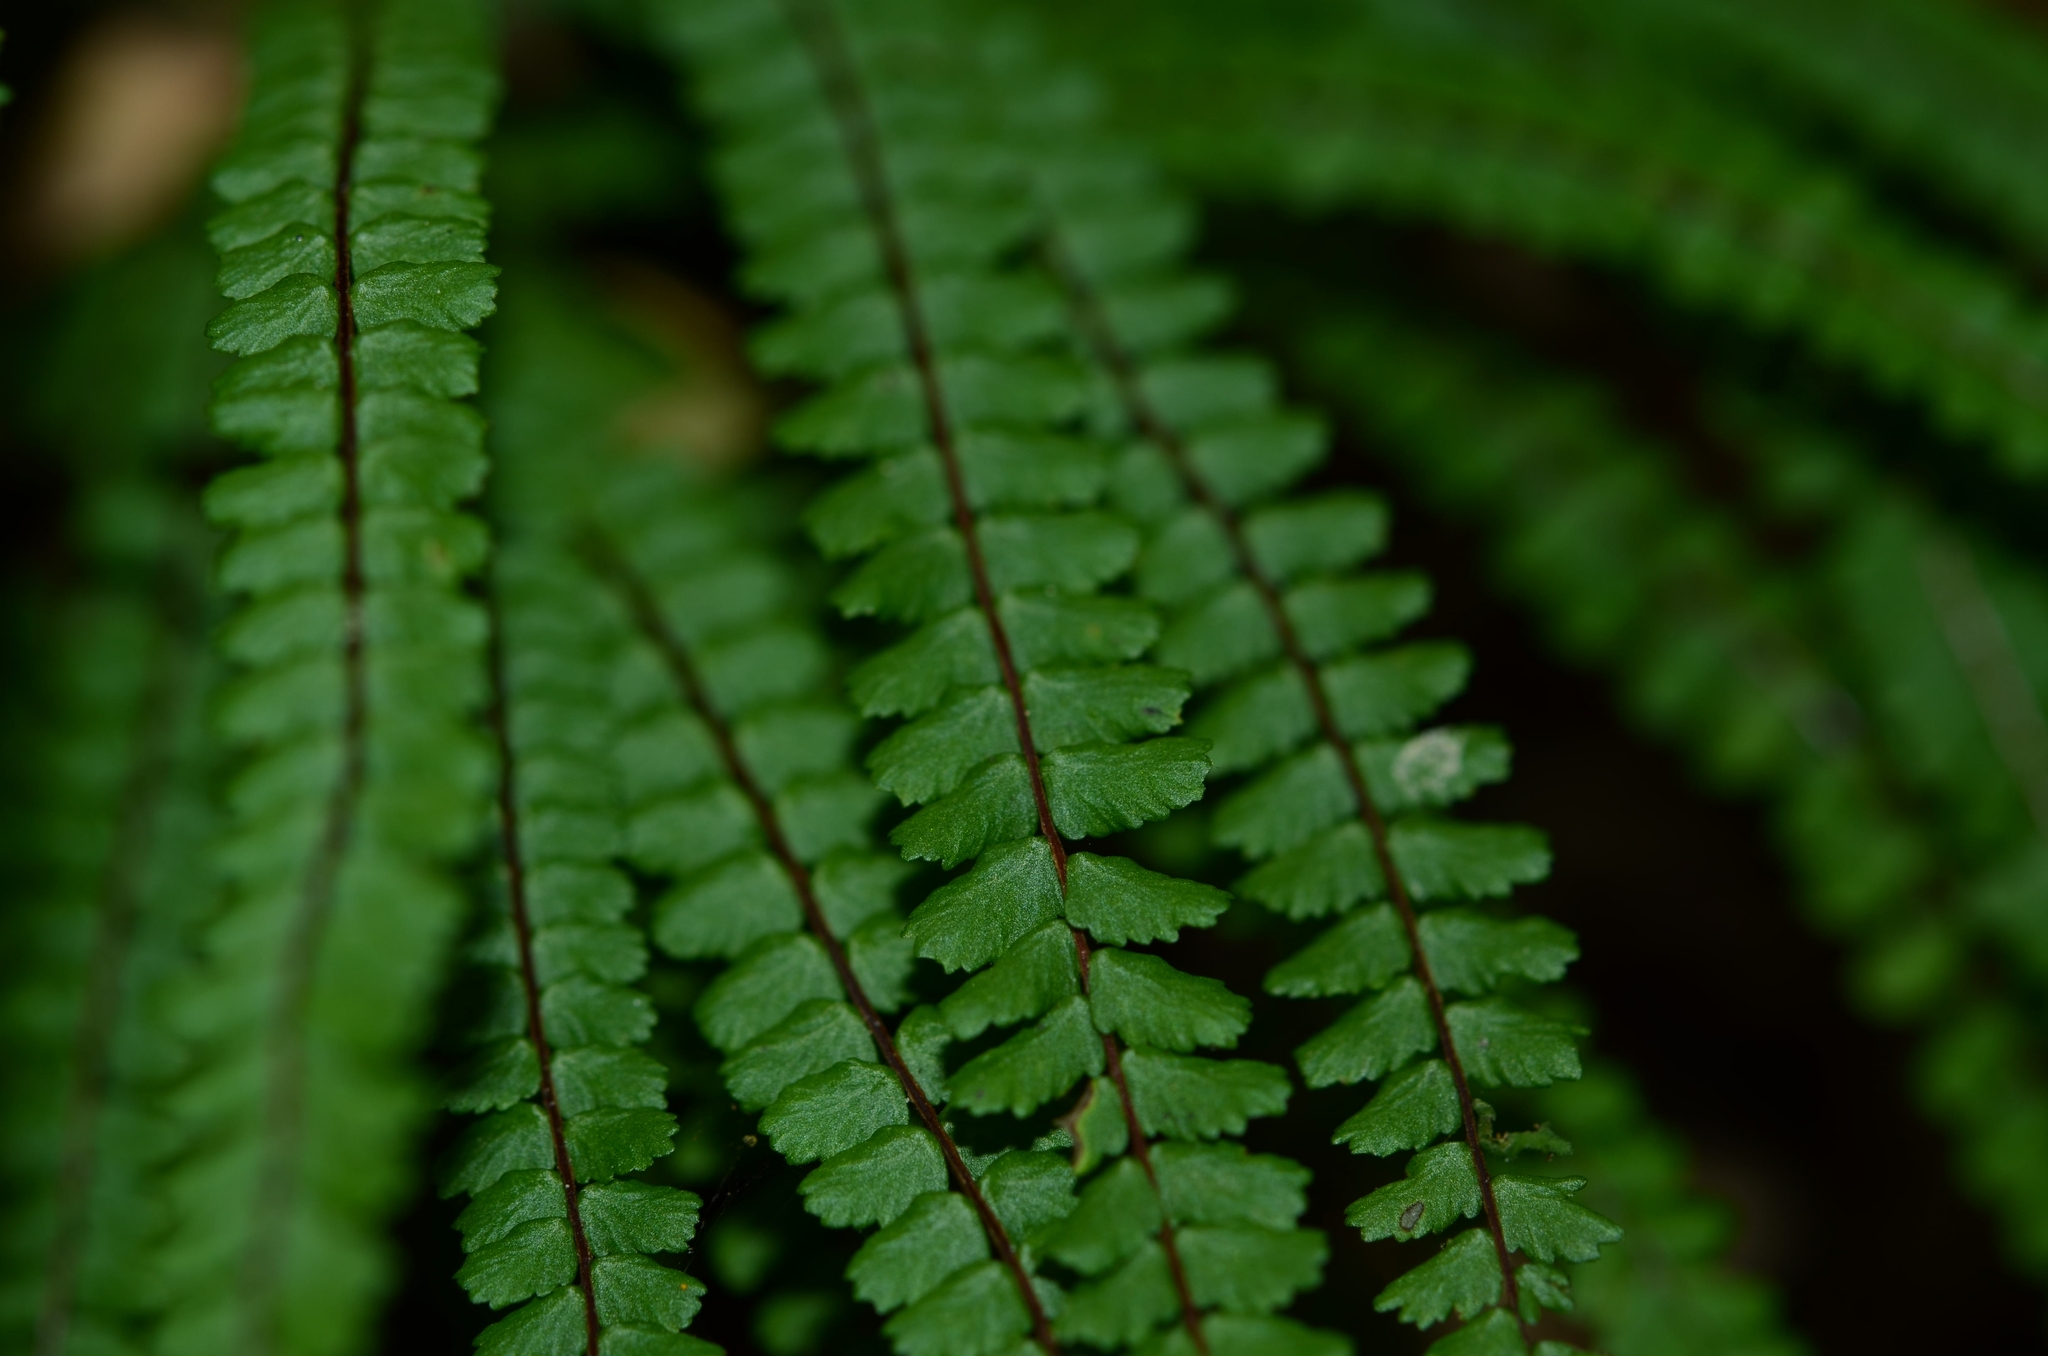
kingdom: Plantae
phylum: Tracheophyta
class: Polypodiopsida
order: Polypodiales
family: Aspleniaceae
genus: Asplenium
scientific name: Asplenium trichomanes
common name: Maidenhair spleenwort
